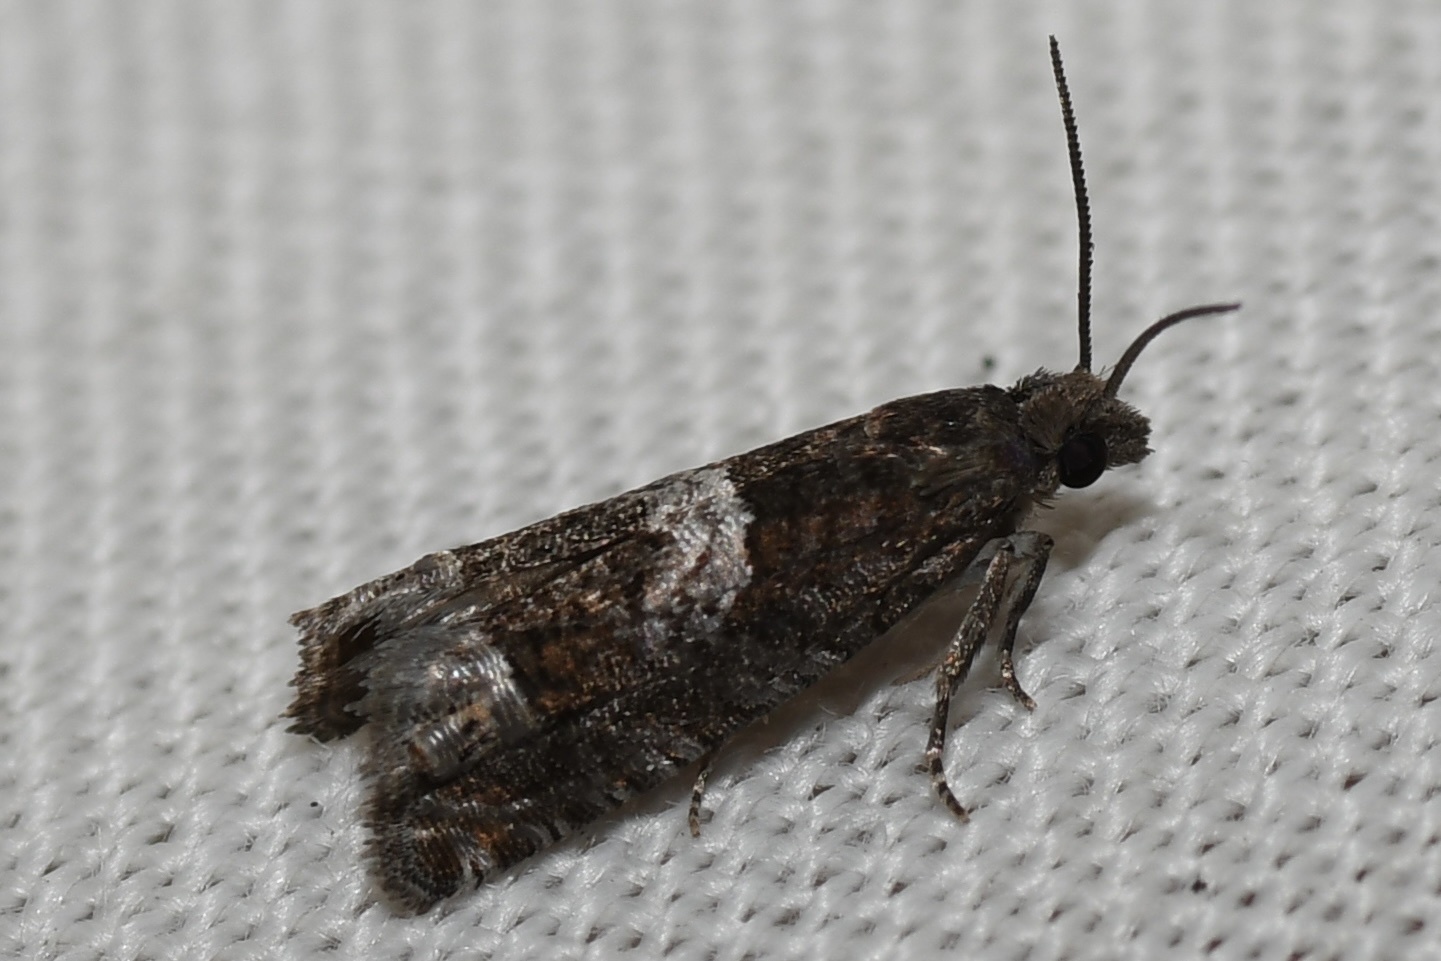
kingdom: Animalia
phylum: Arthropoda
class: Insecta
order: Lepidoptera
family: Tortricidae
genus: Eucosma
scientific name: Eucosma parmatana
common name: Aster eucosma moth
